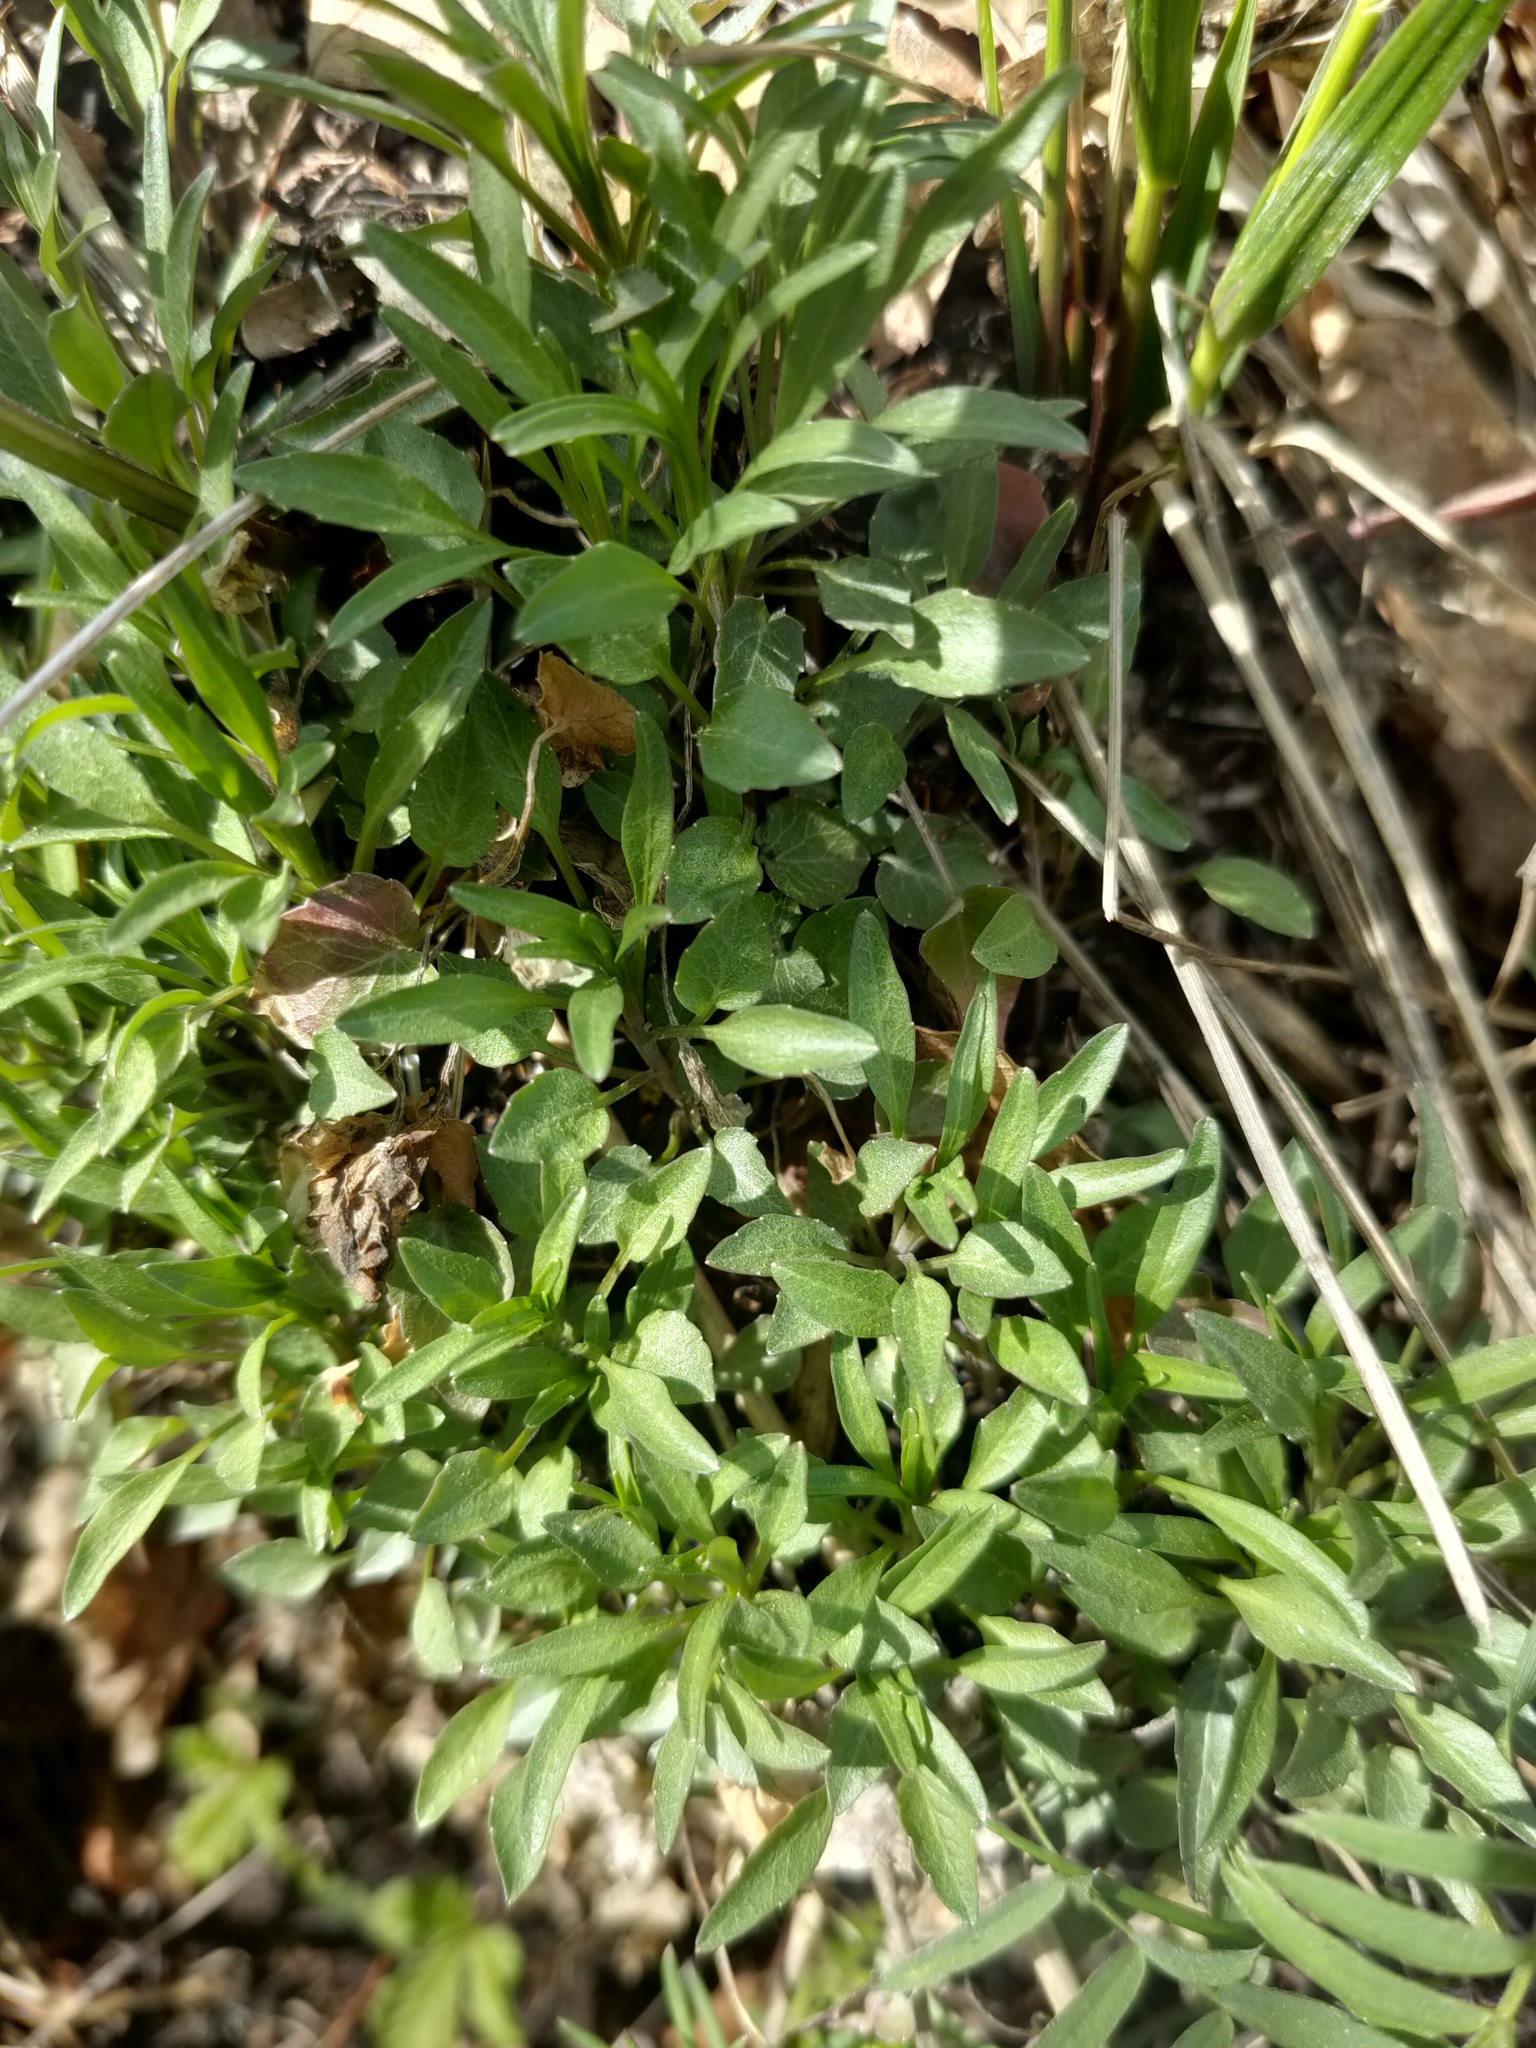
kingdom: Plantae
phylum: Tracheophyta
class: Magnoliopsida
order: Asterales
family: Campanulaceae
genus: Campanula
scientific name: Campanula rotundifolia
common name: Harebell
